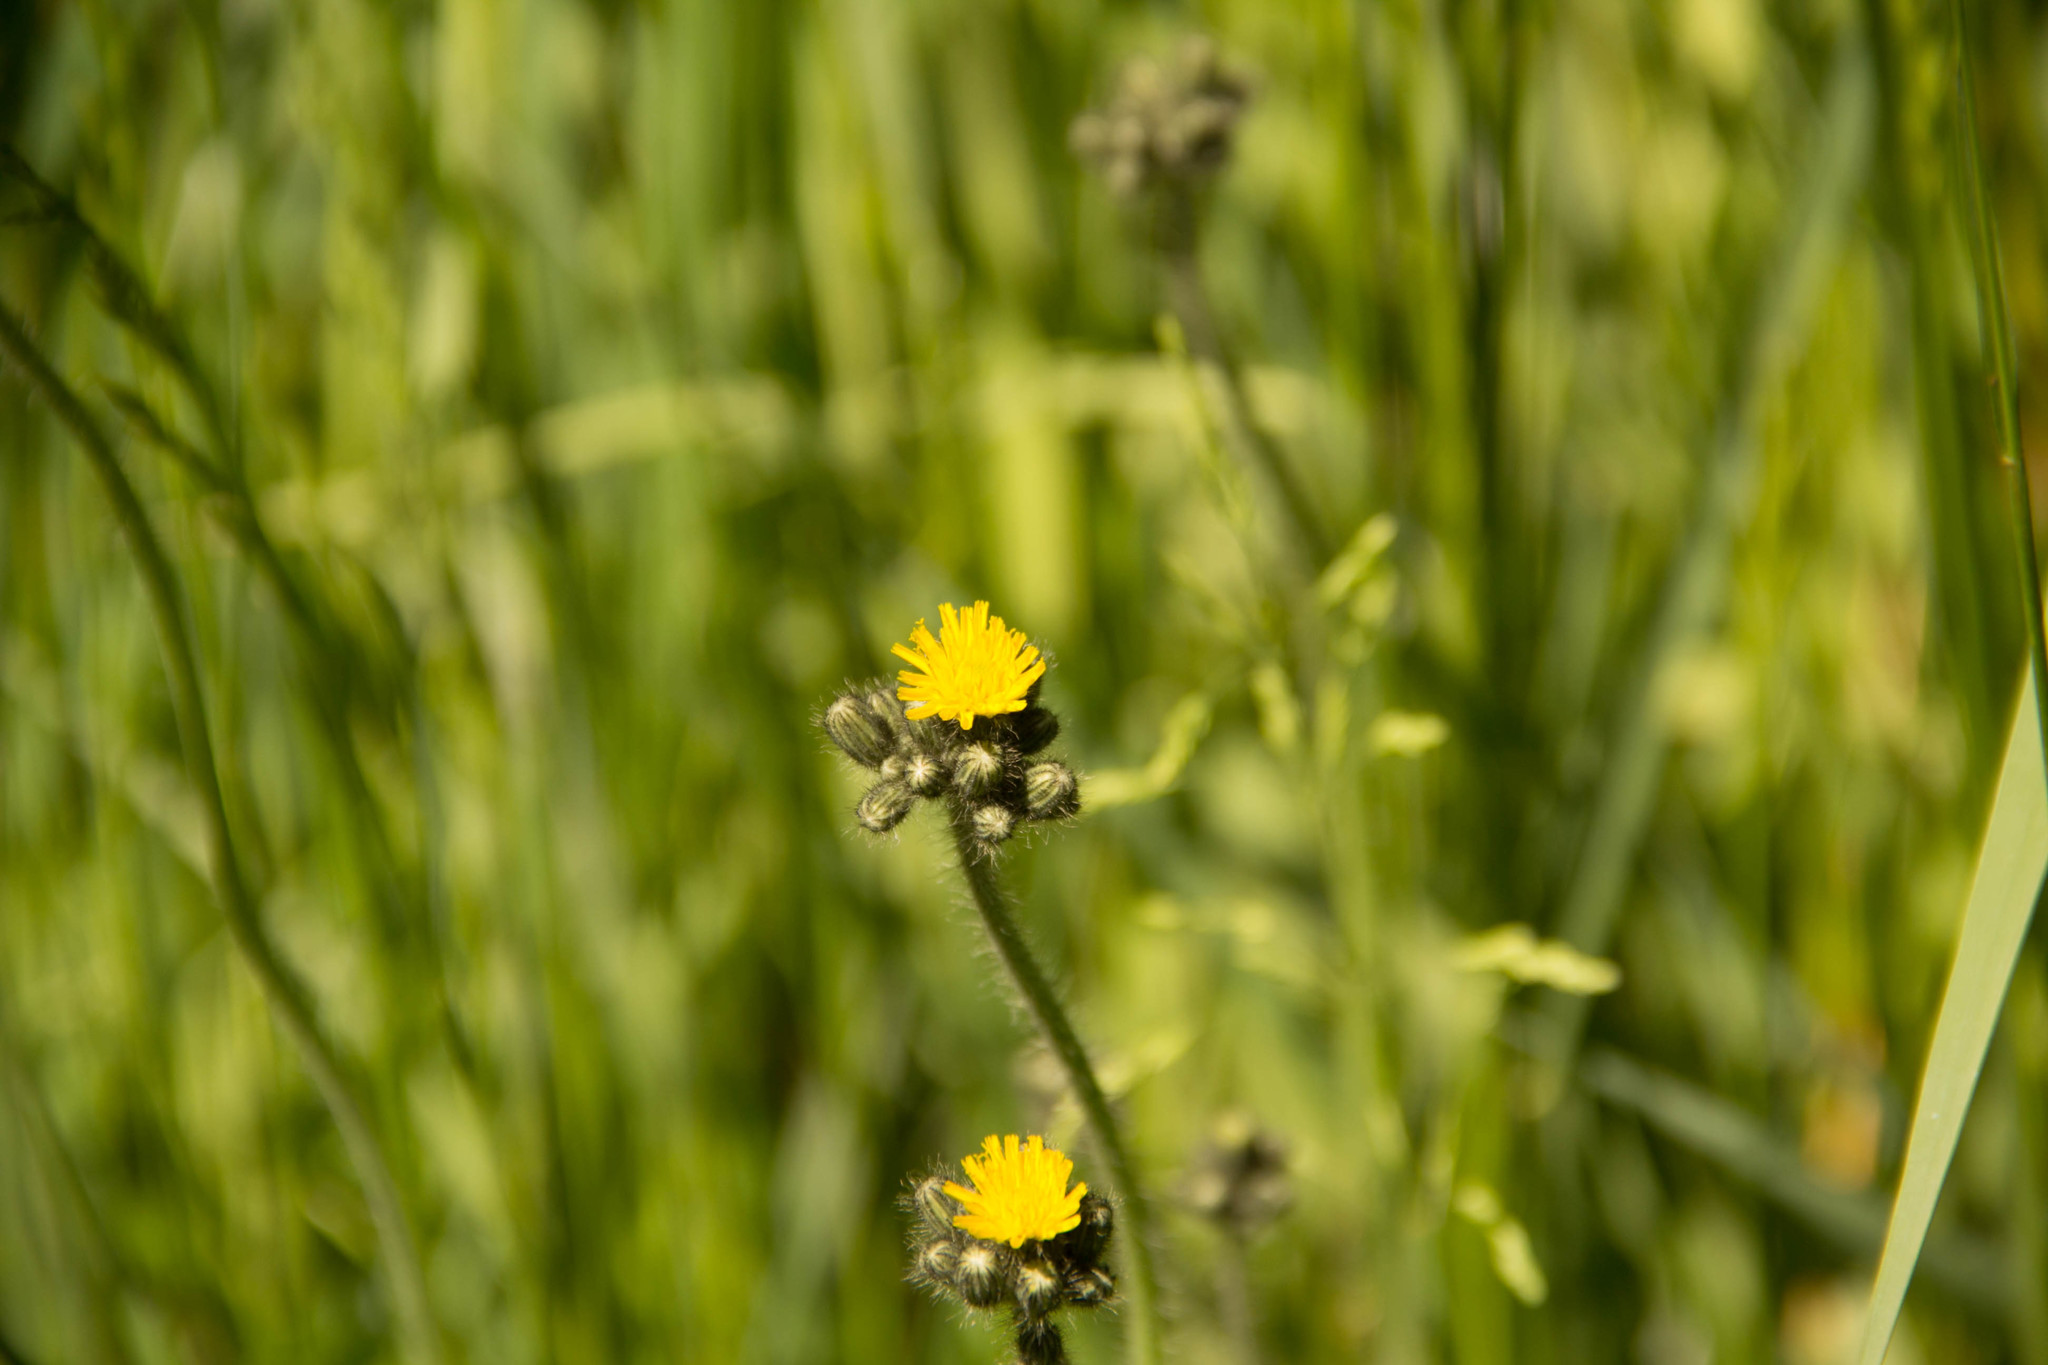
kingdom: Plantae
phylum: Tracheophyta
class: Magnoliopsida
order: Asterales
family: Asteraceae
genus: Pilosella
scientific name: Pilosella caespitosa
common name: Yellow fox-and-cubs
